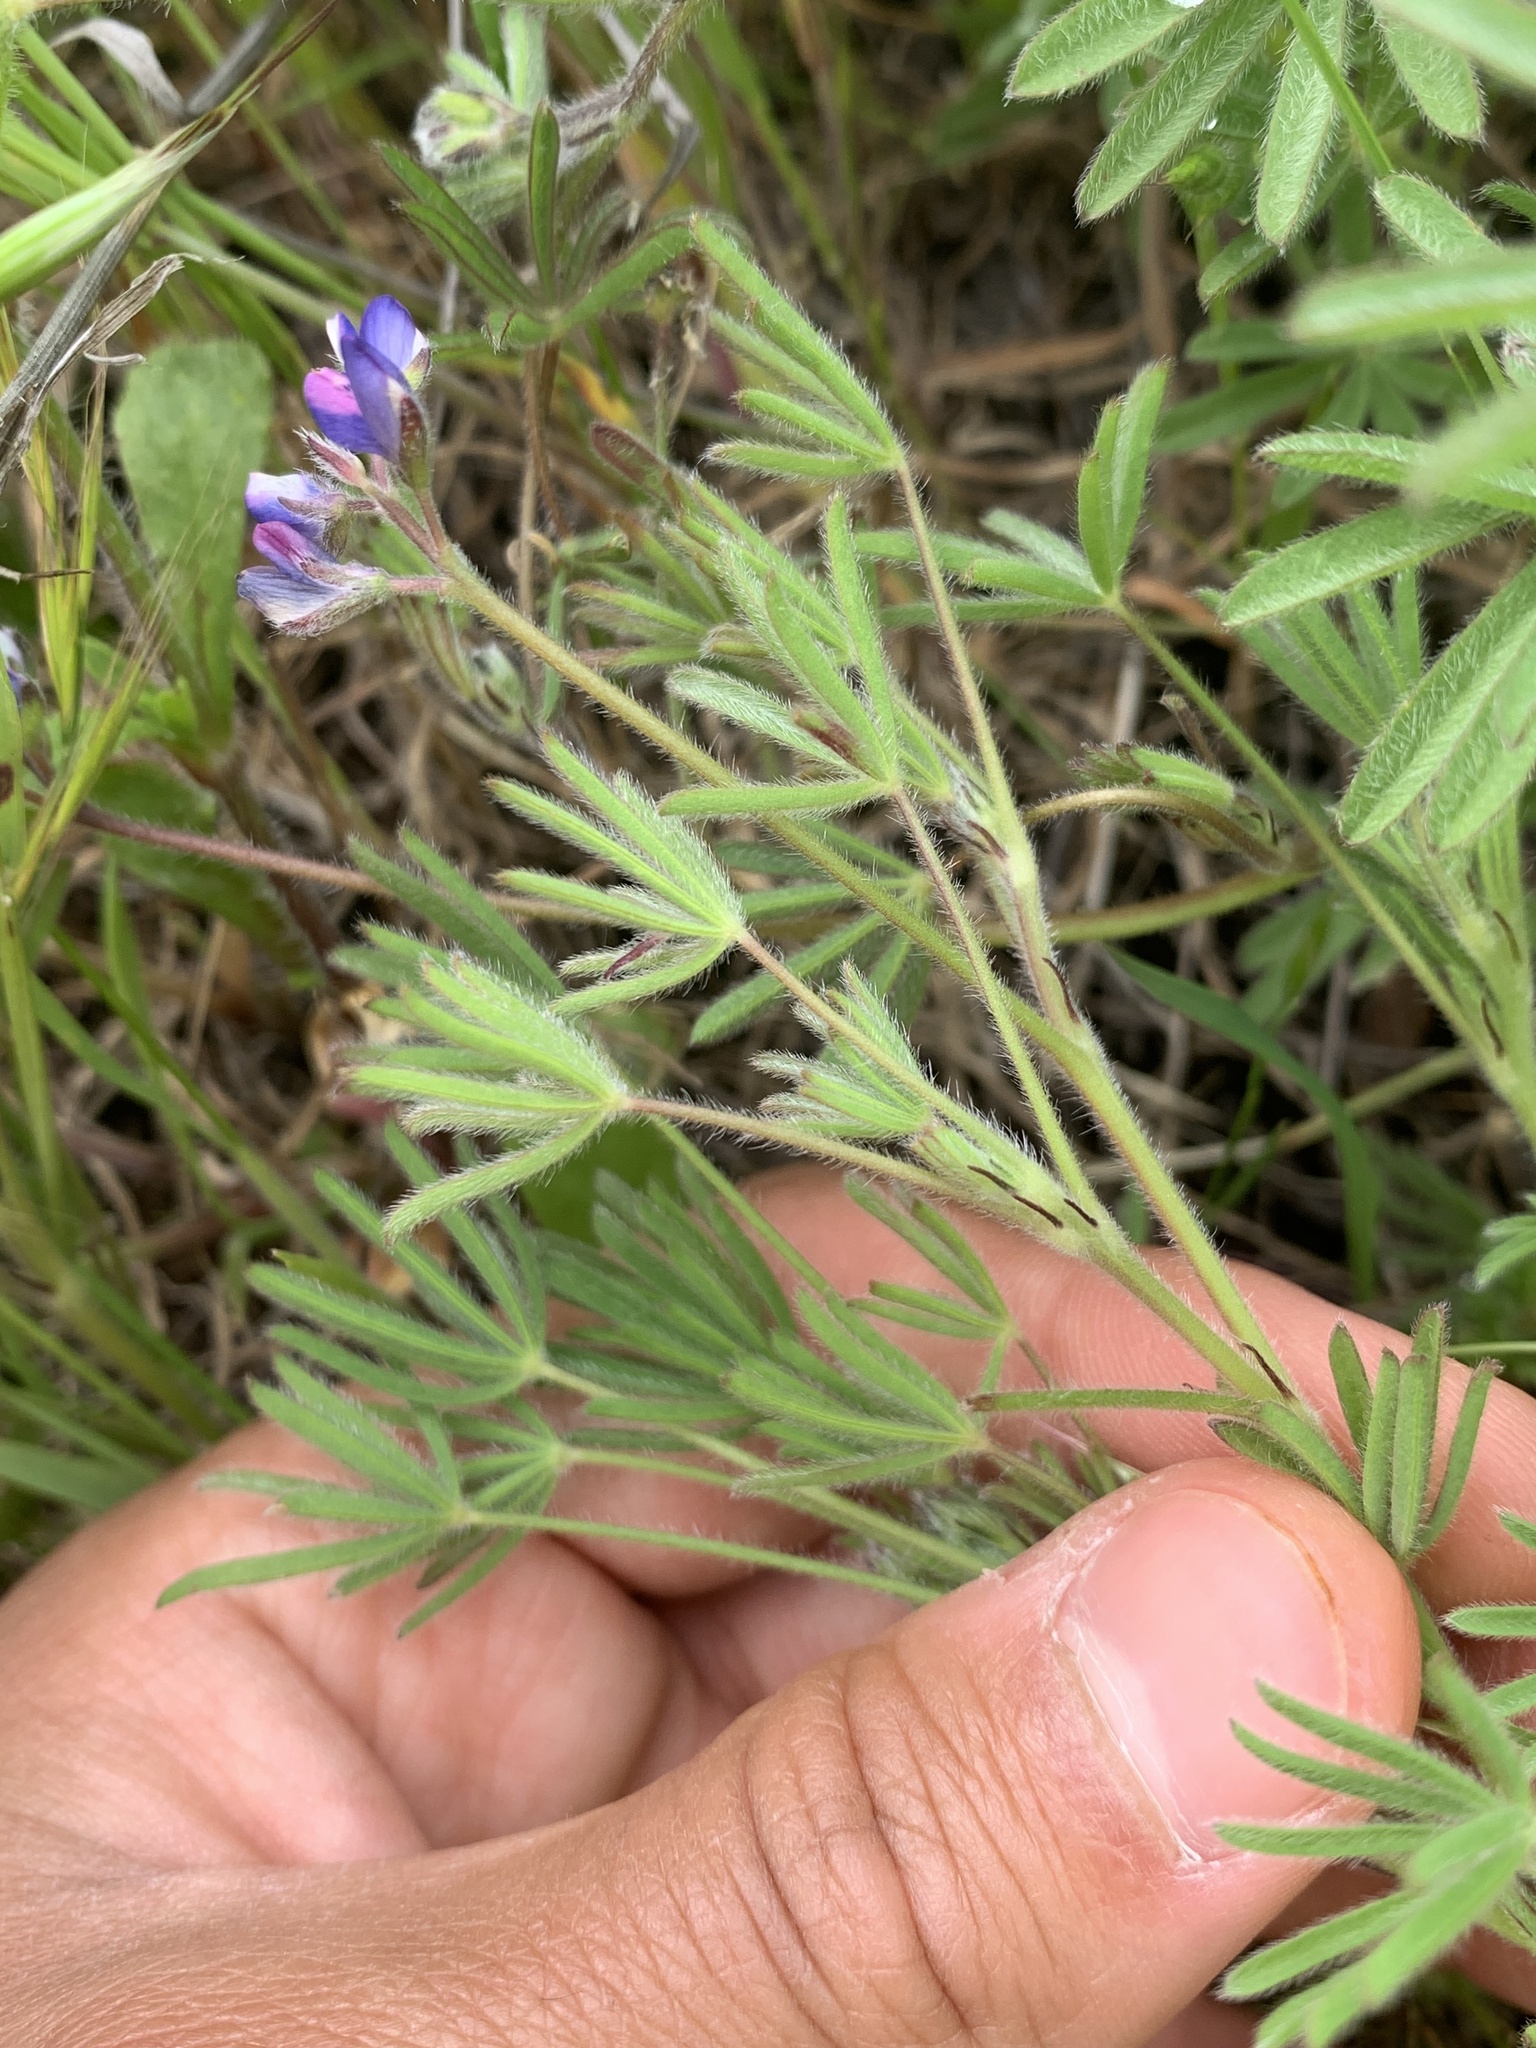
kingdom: Plantae
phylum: Tracheophyta
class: Magnoliopsida
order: Fabales
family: Fabaceae
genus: Lupinus
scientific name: Lupinus bicolor
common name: Miniature lupine
